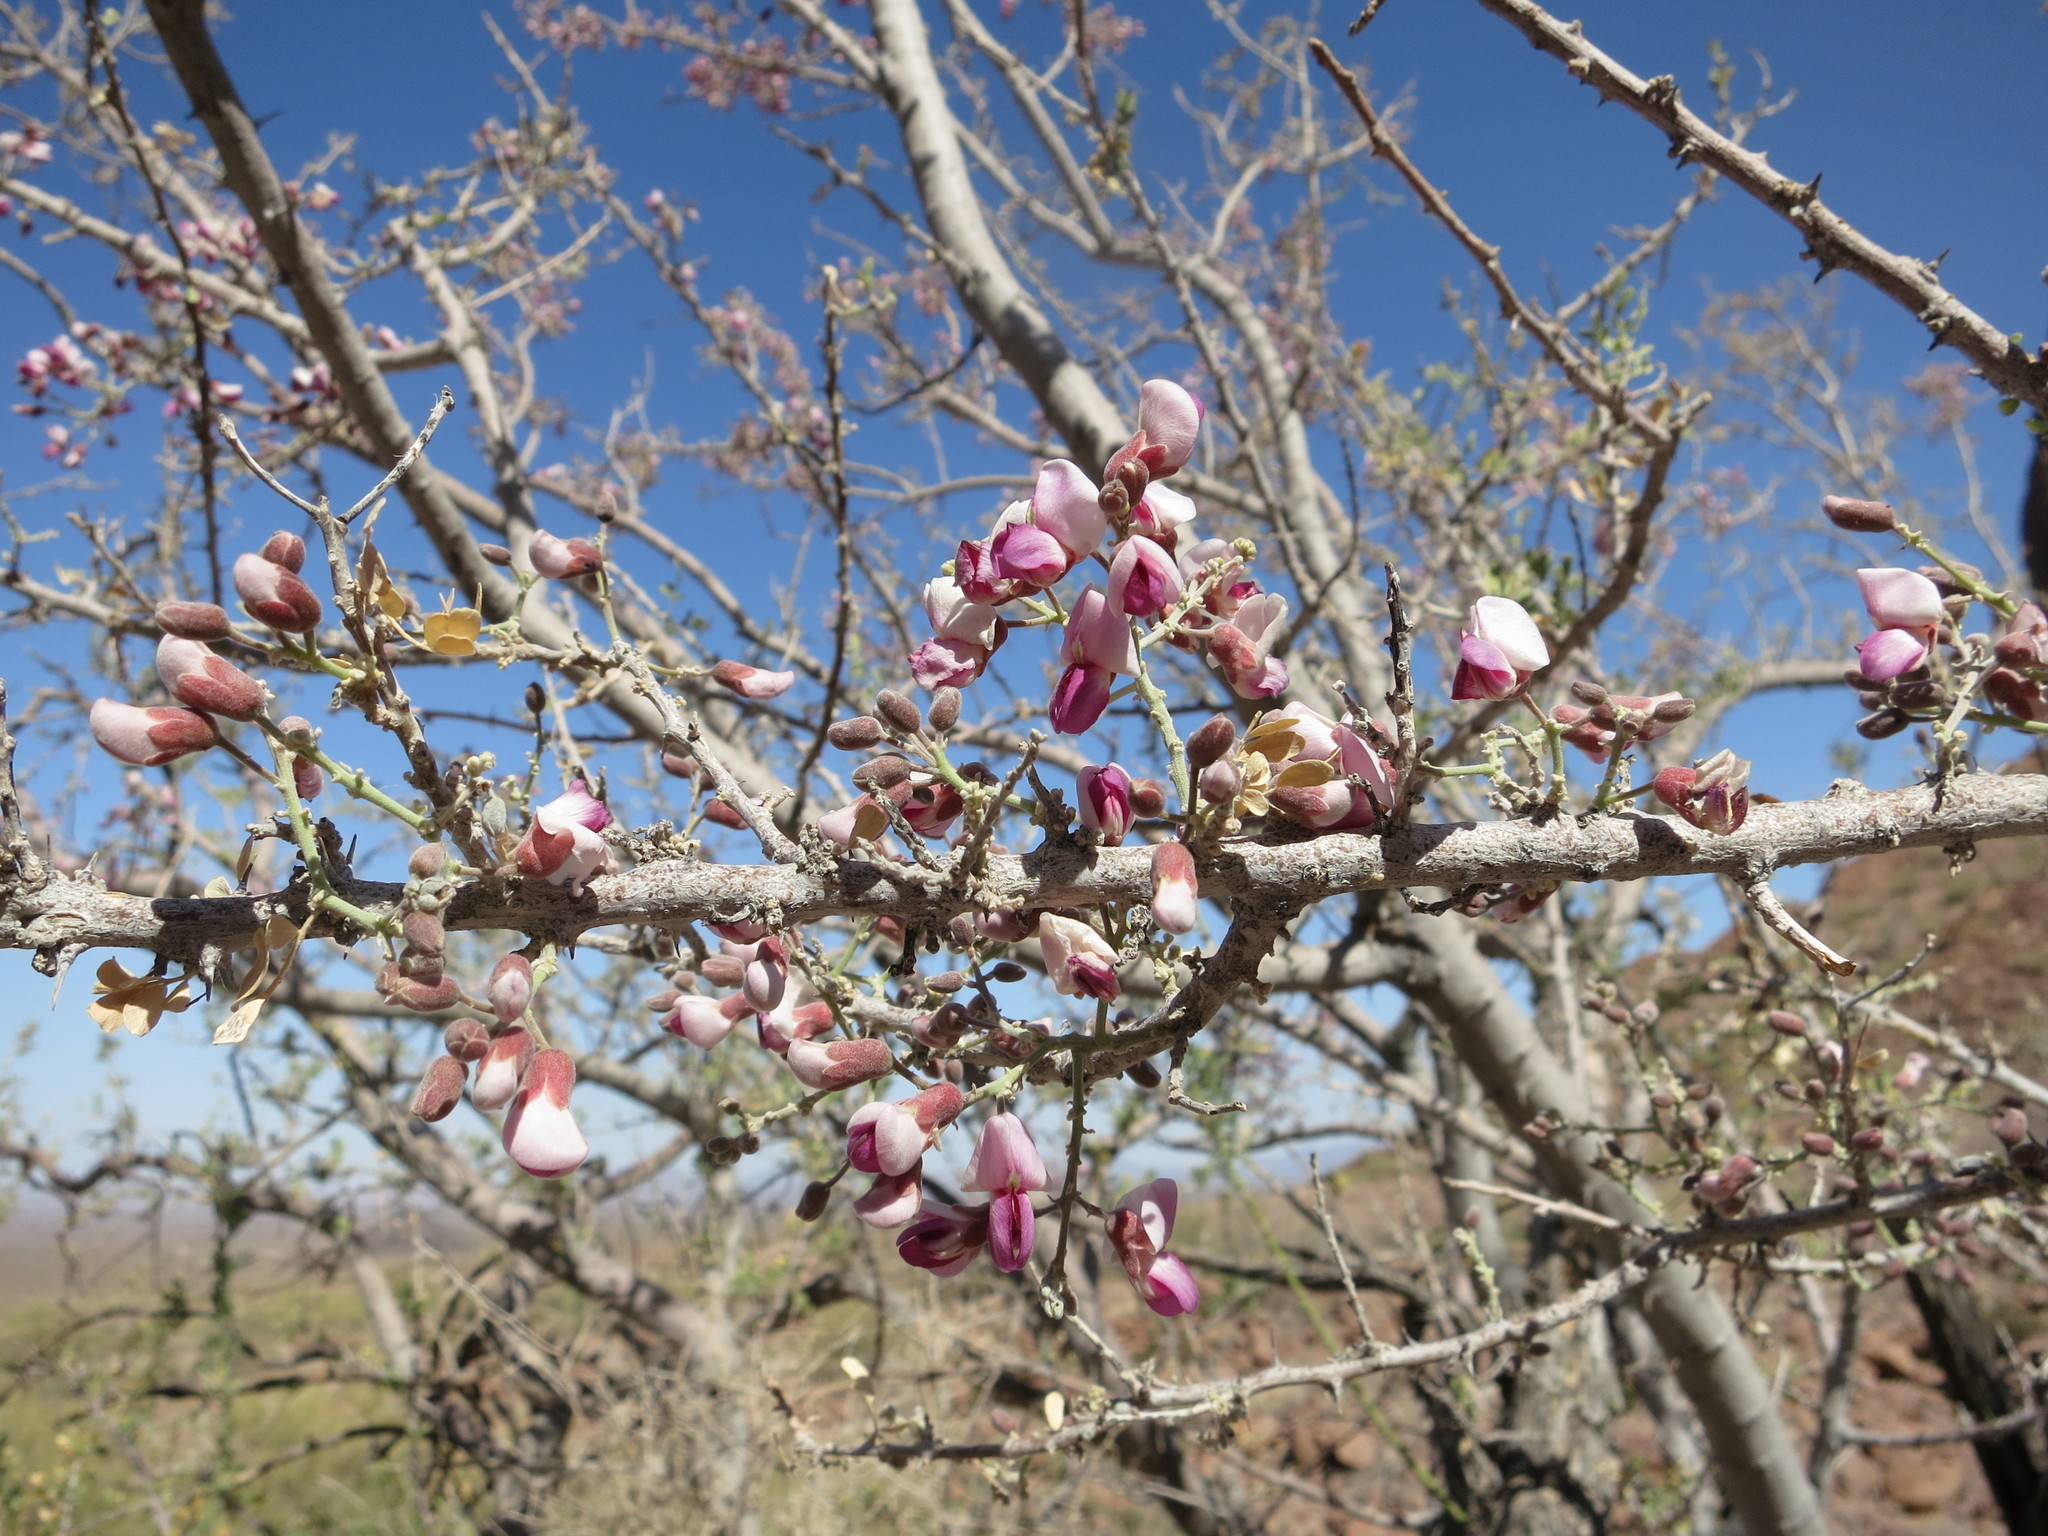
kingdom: Plantae
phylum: Tracheophyta
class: Magnoliopsida
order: Fabales
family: Fabaceae
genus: Olneya
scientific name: Olneya tesota
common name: Desert ironwood
